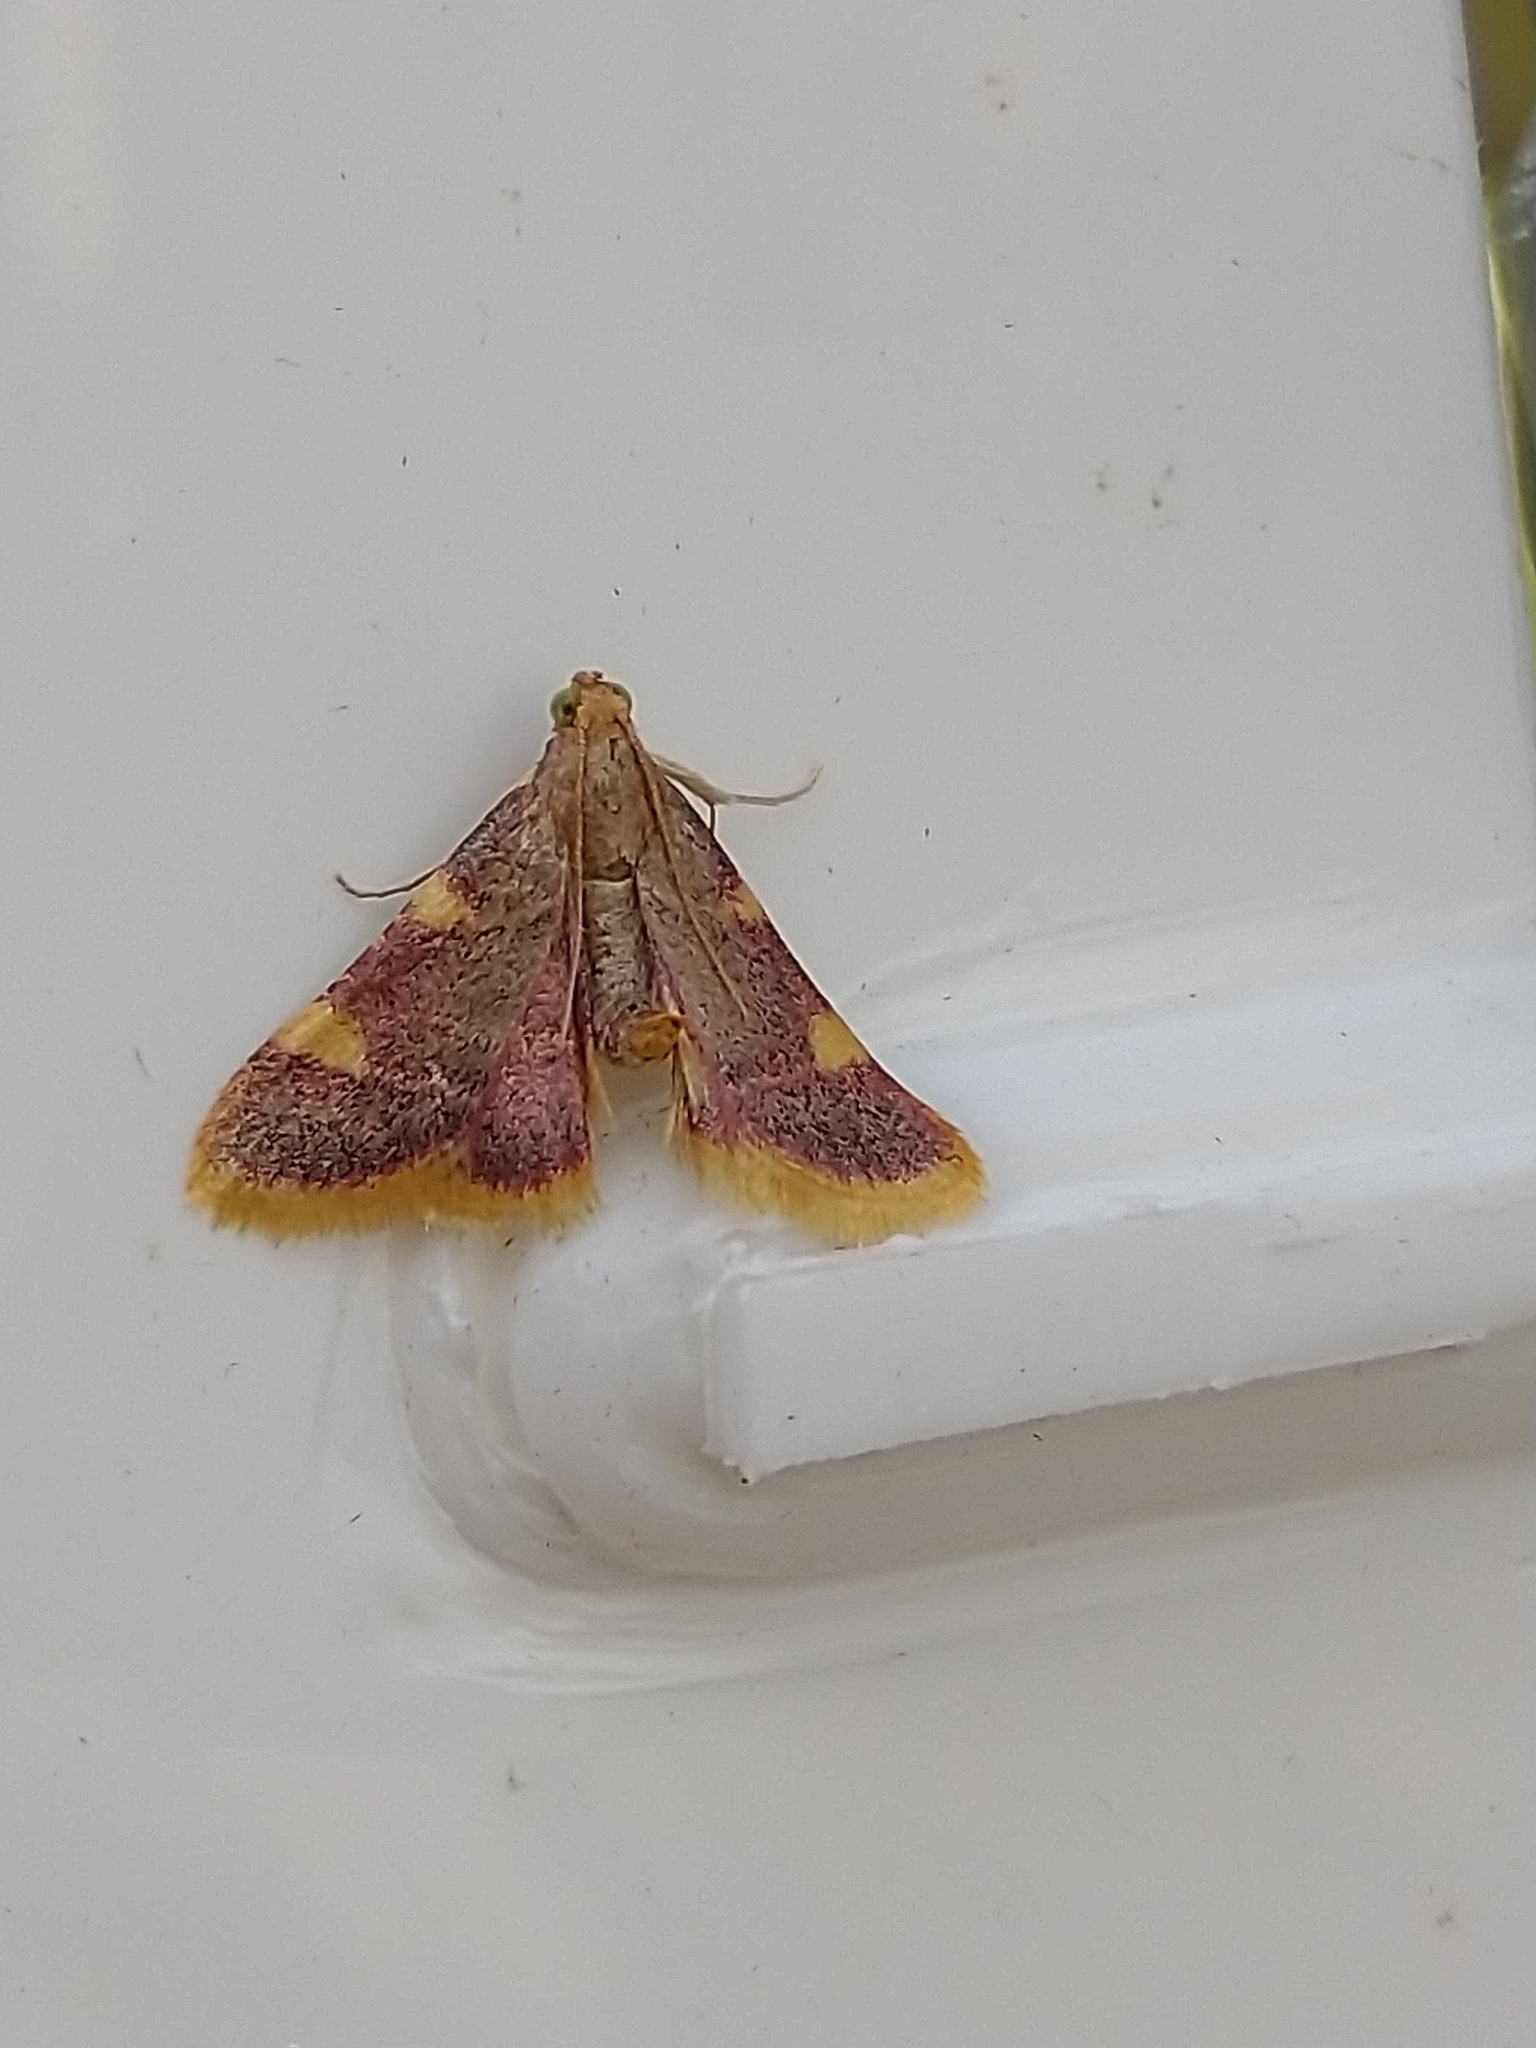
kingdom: Animalia
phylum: Arthropoda
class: Insecta
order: Lepidoptera
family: Pyralidae
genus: Hypsopygia
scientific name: Hypsopygia costalis
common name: Gold triangle
